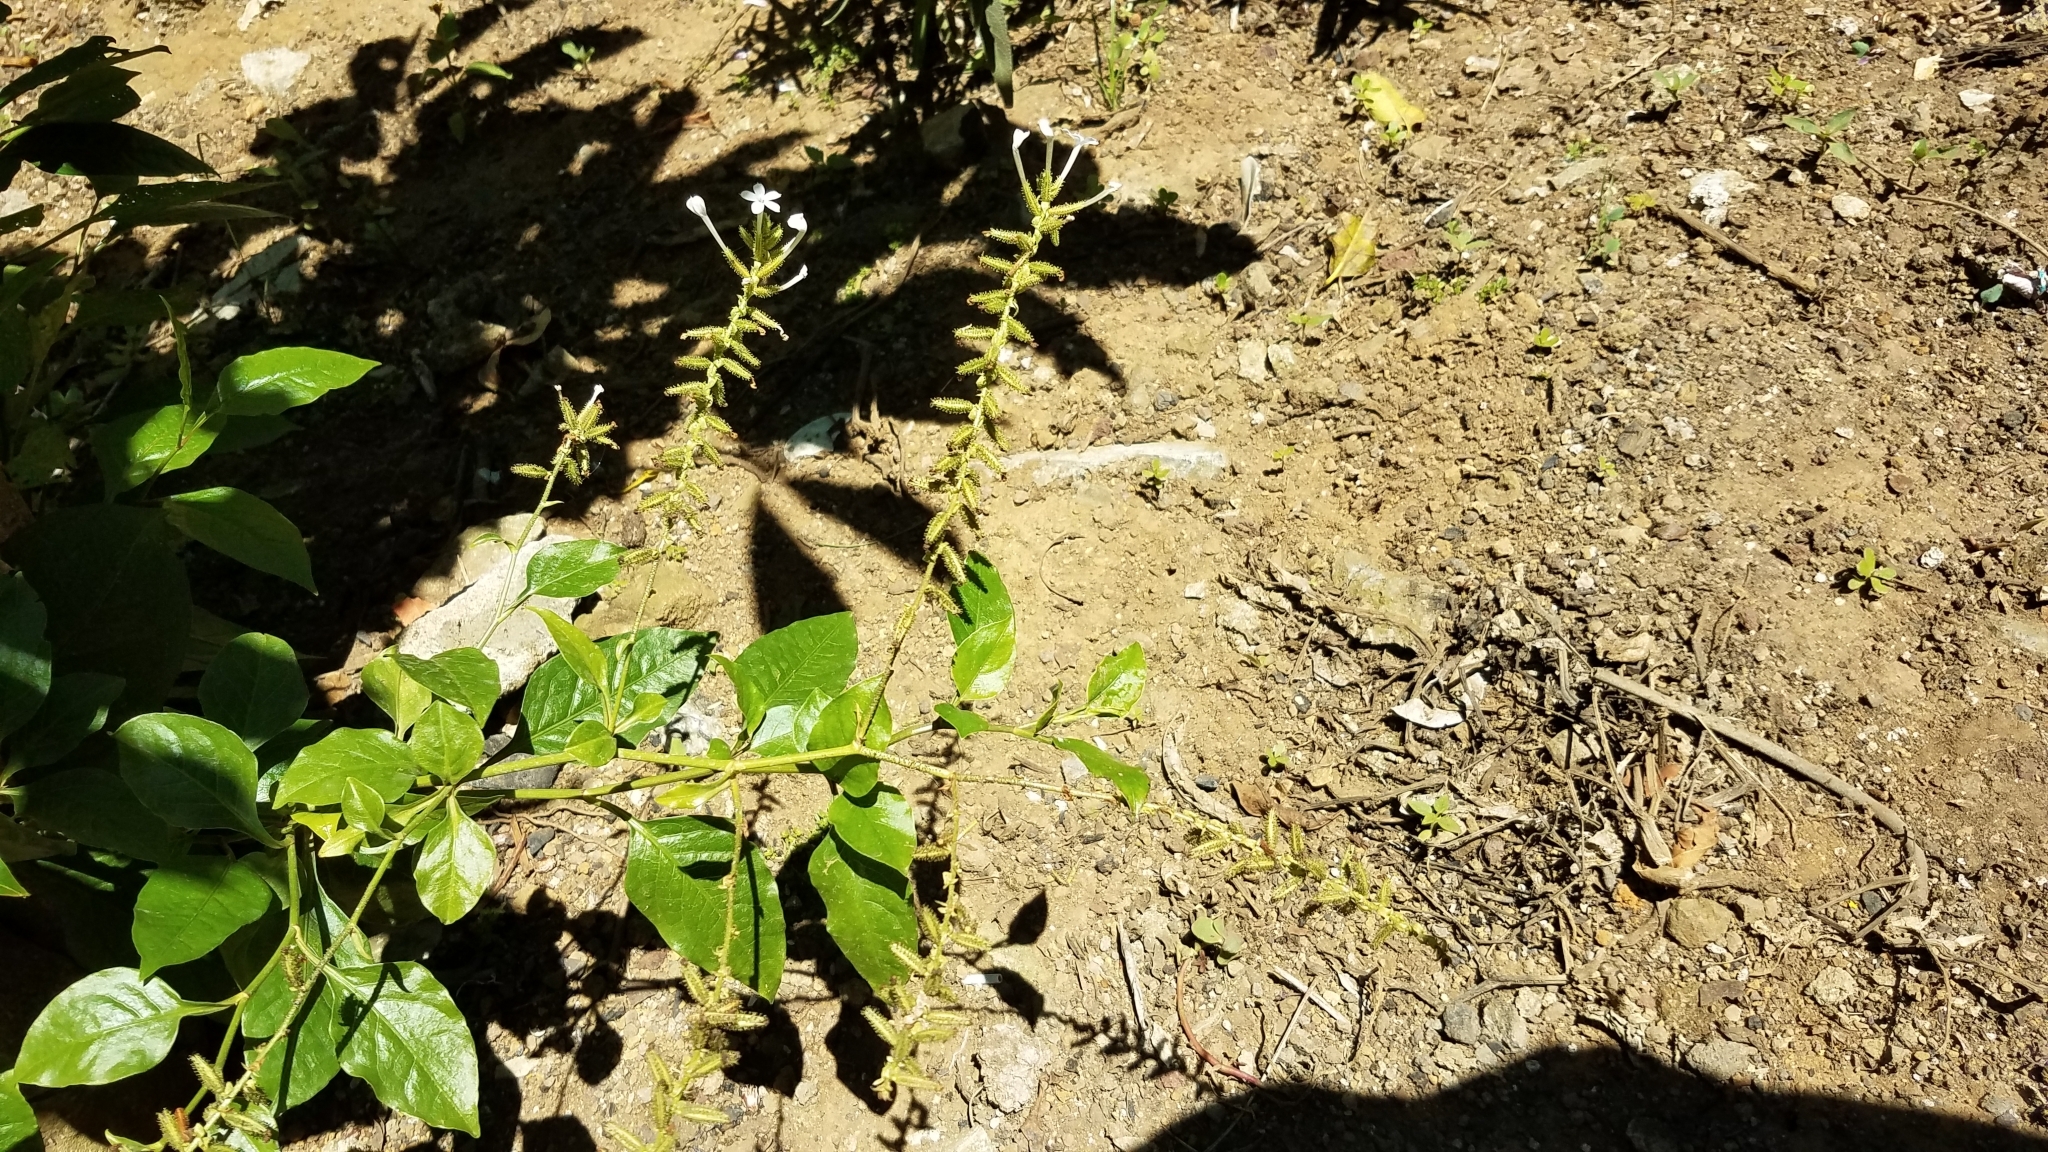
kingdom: Plantae
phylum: Tracheophyta
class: Magnoliopsida
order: Caryophyllales
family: Plumbaginaceae
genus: Plumbago
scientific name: Plumbago zeylanica
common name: Doctorbush
